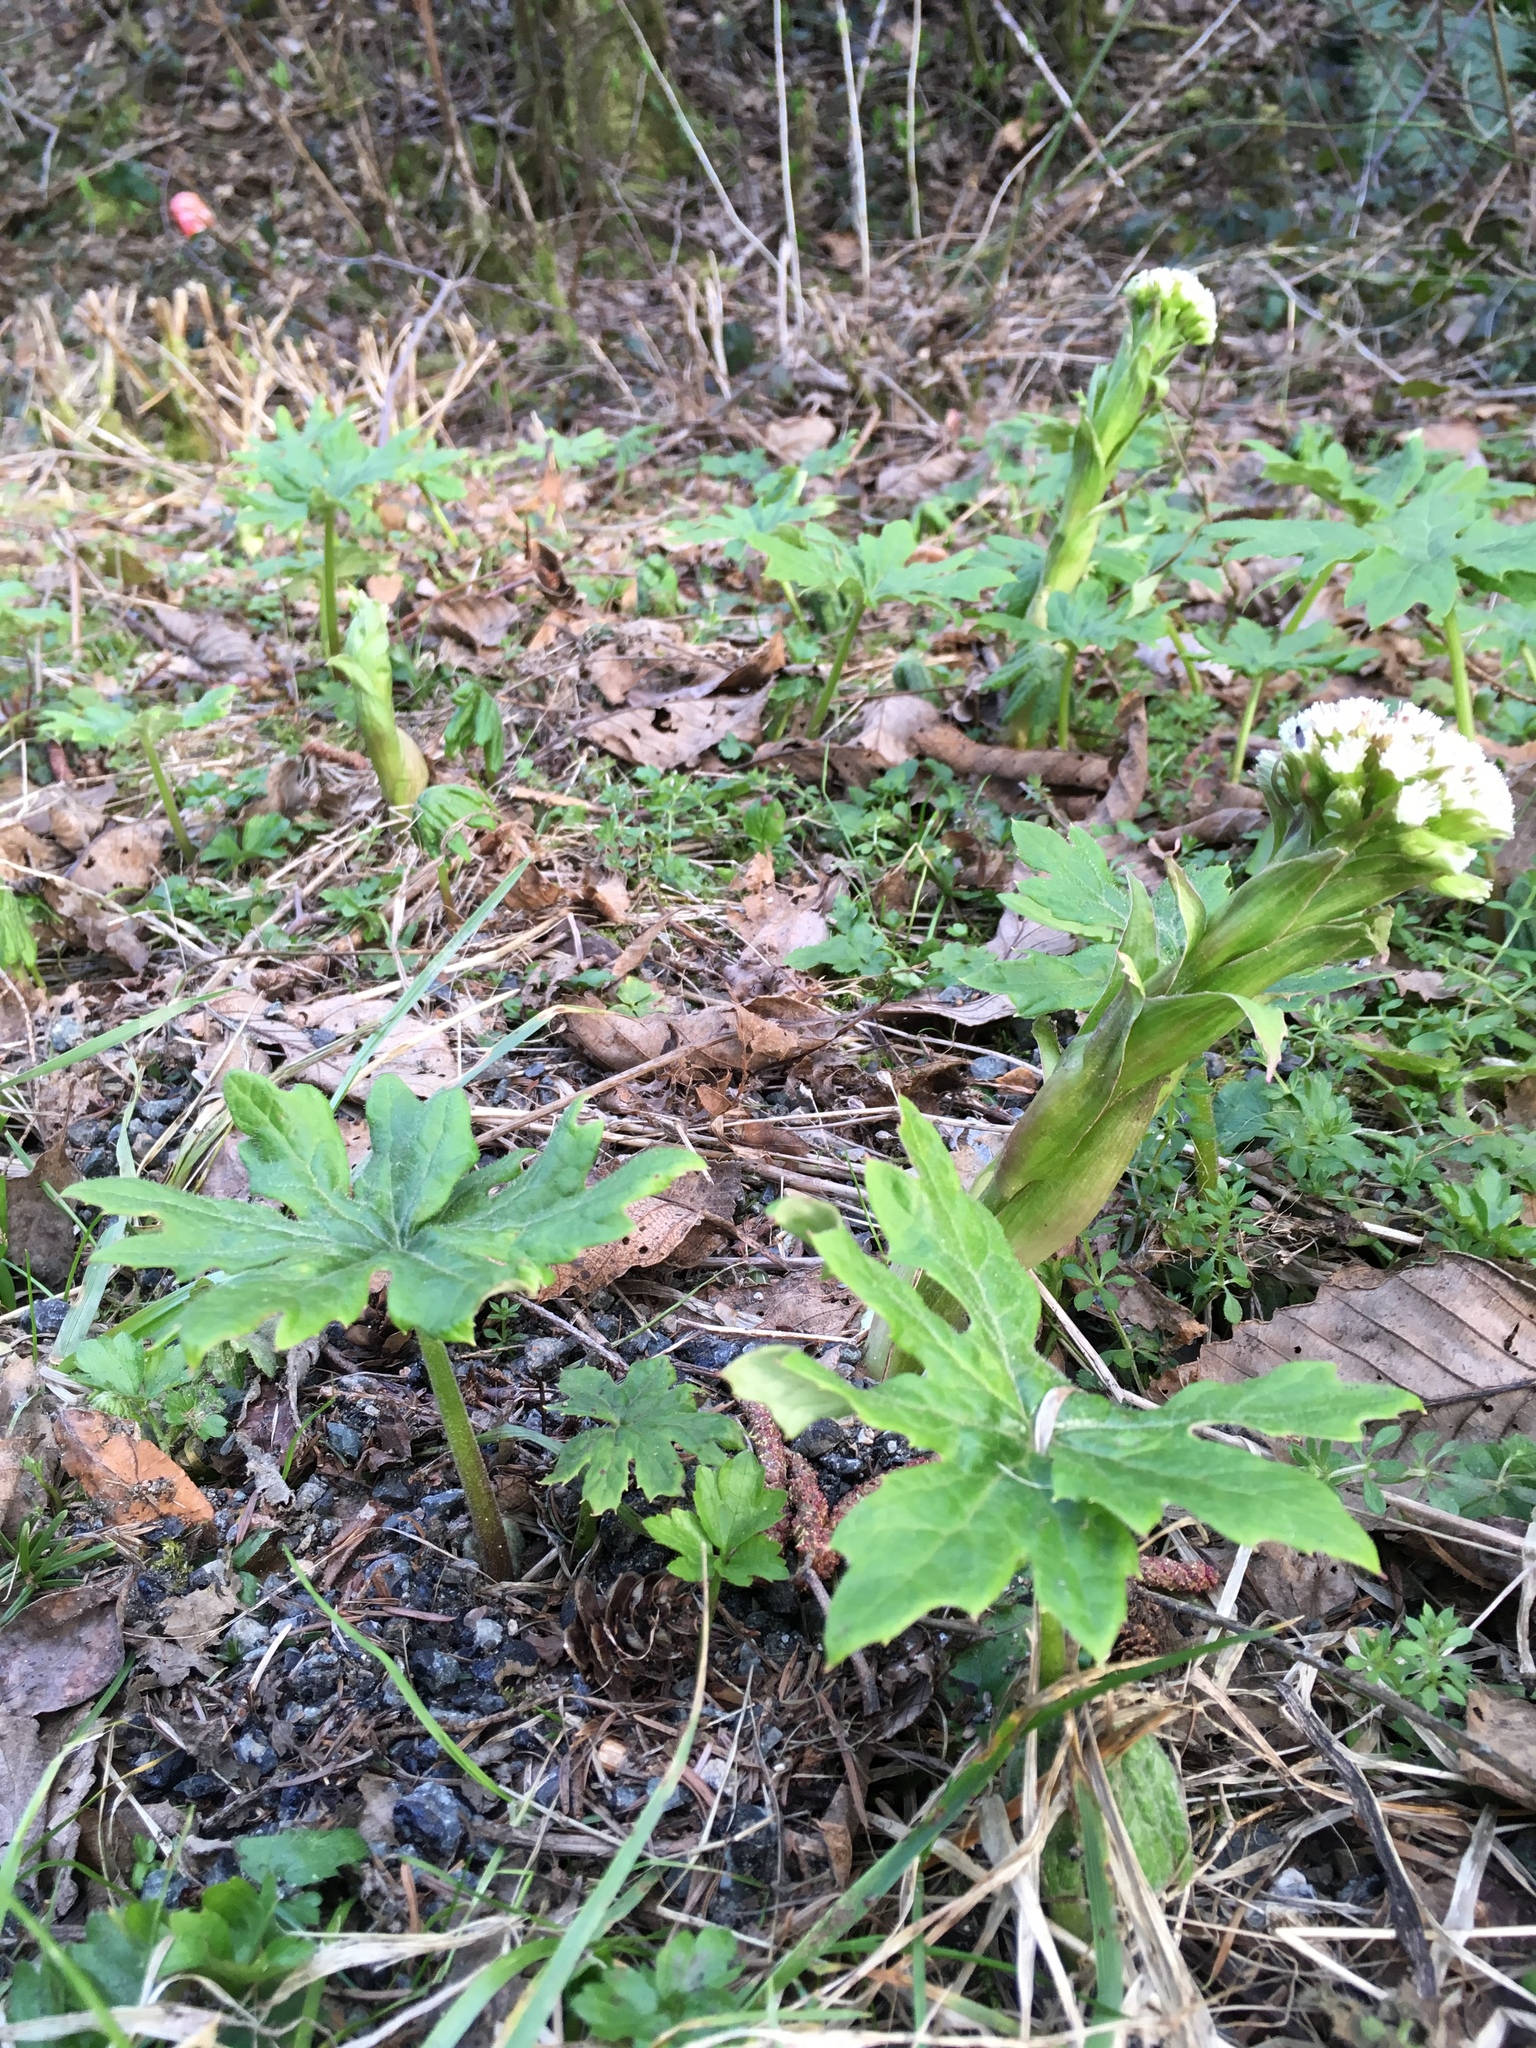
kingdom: Plantae
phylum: Tracheophyta
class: Magnoliopsida
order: Asterales
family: Asteraceae
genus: Petasites
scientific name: Petasites frigidus
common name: Arctic butterbur
